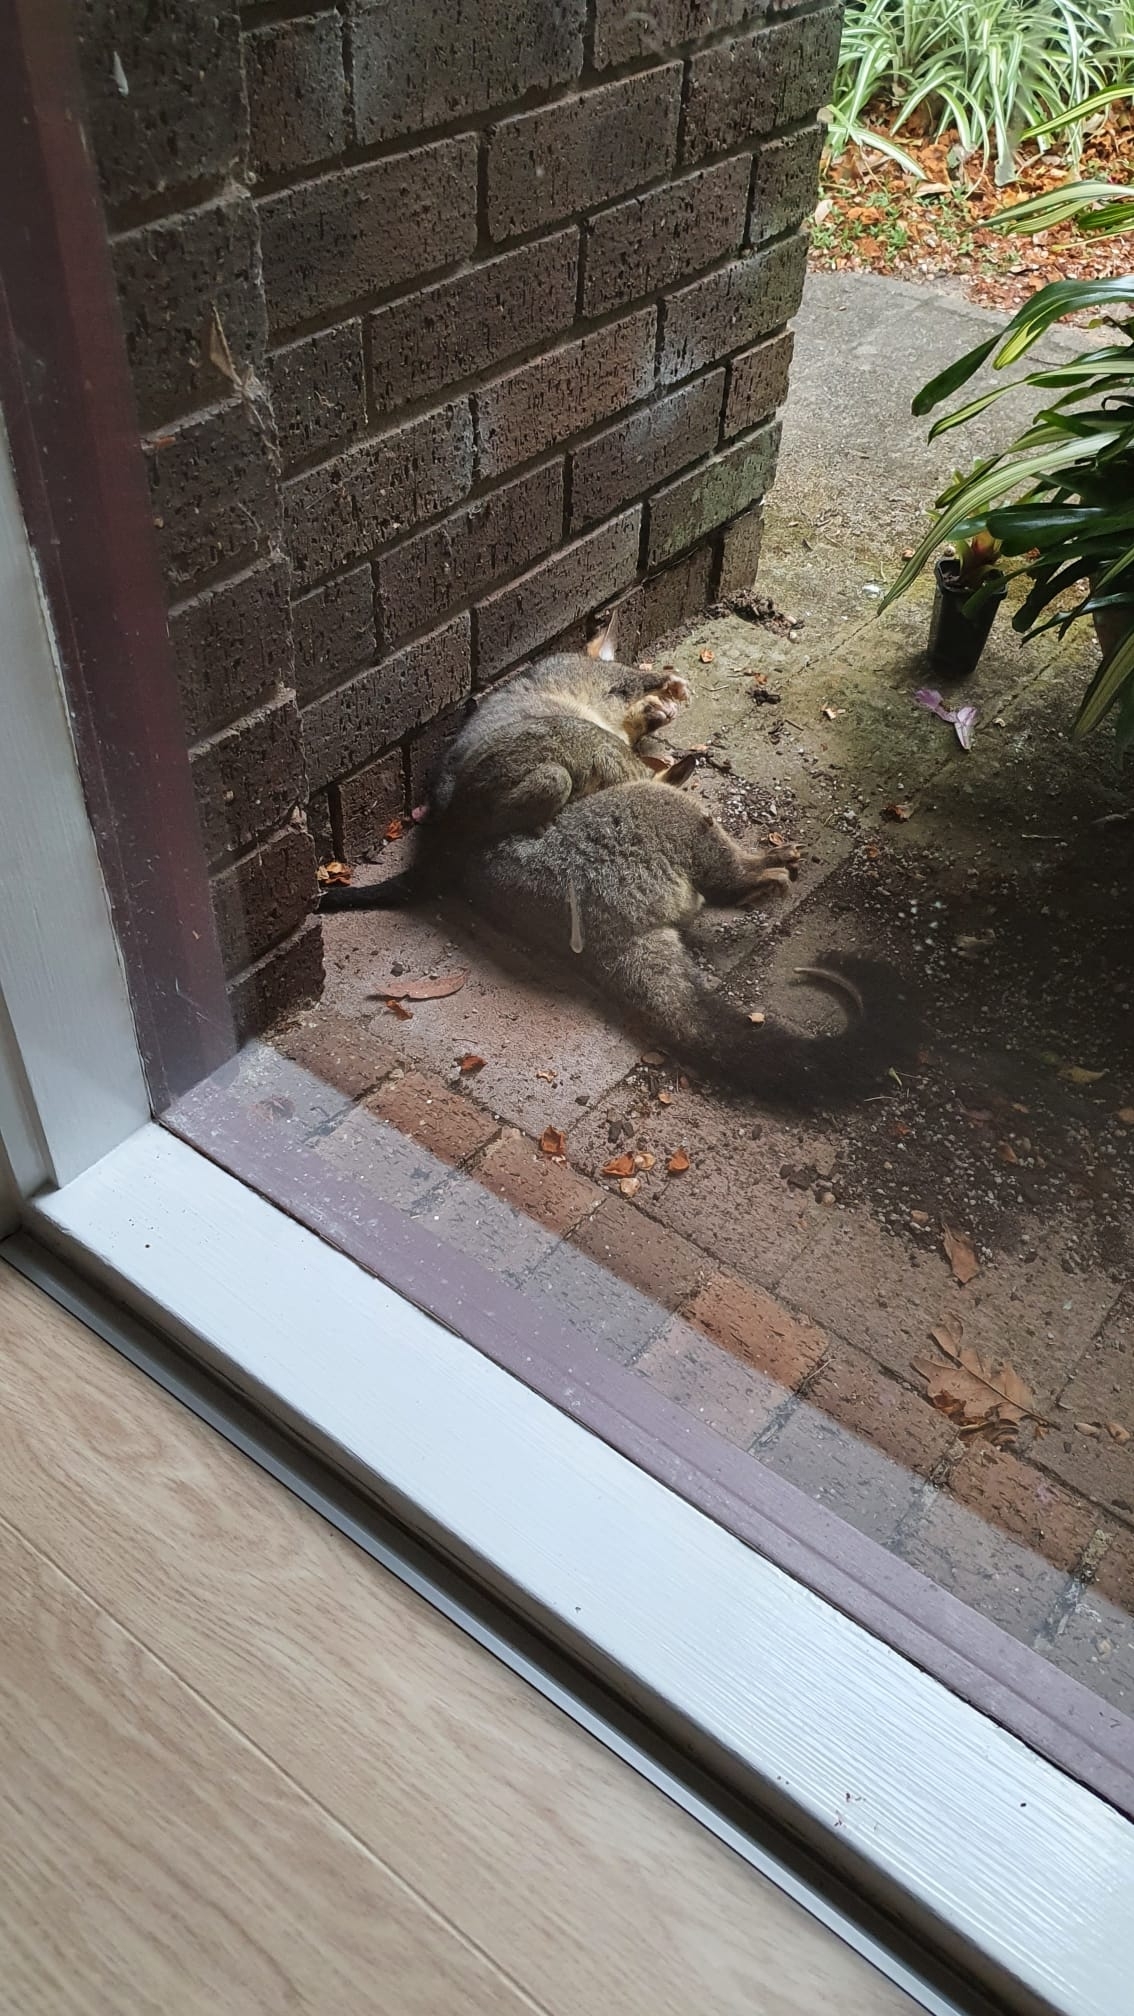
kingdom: Animalia
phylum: Chordata
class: Mammalia
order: Diprotodontia
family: Phalangeridae
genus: Trichosurus
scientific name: Trichosurus vulpecula
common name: Common brushtail
